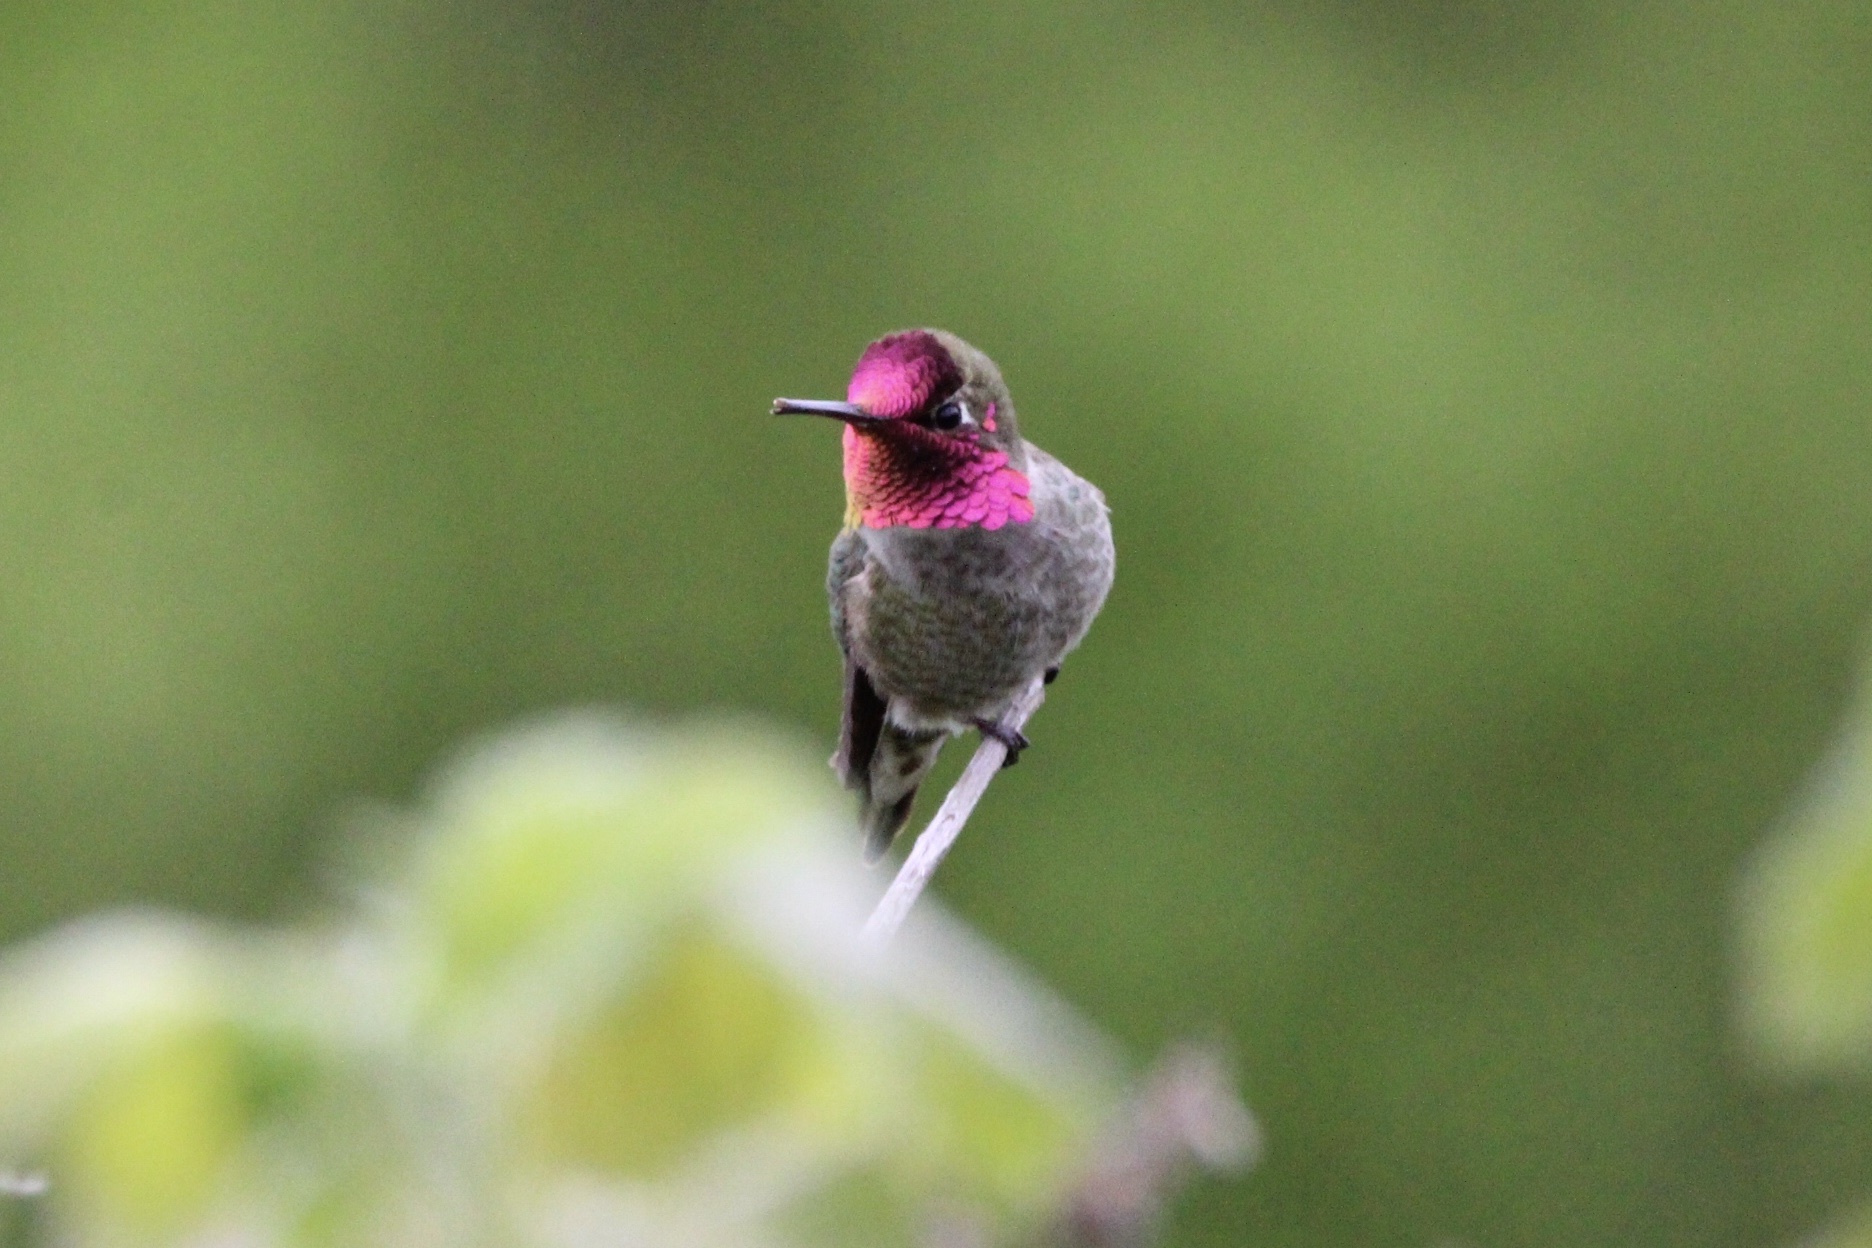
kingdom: Animalia
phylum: Chordata
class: Aves
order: Apodiformes
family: Trochilidae
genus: Calypte
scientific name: Calypte anna
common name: Anna's hummingbird
